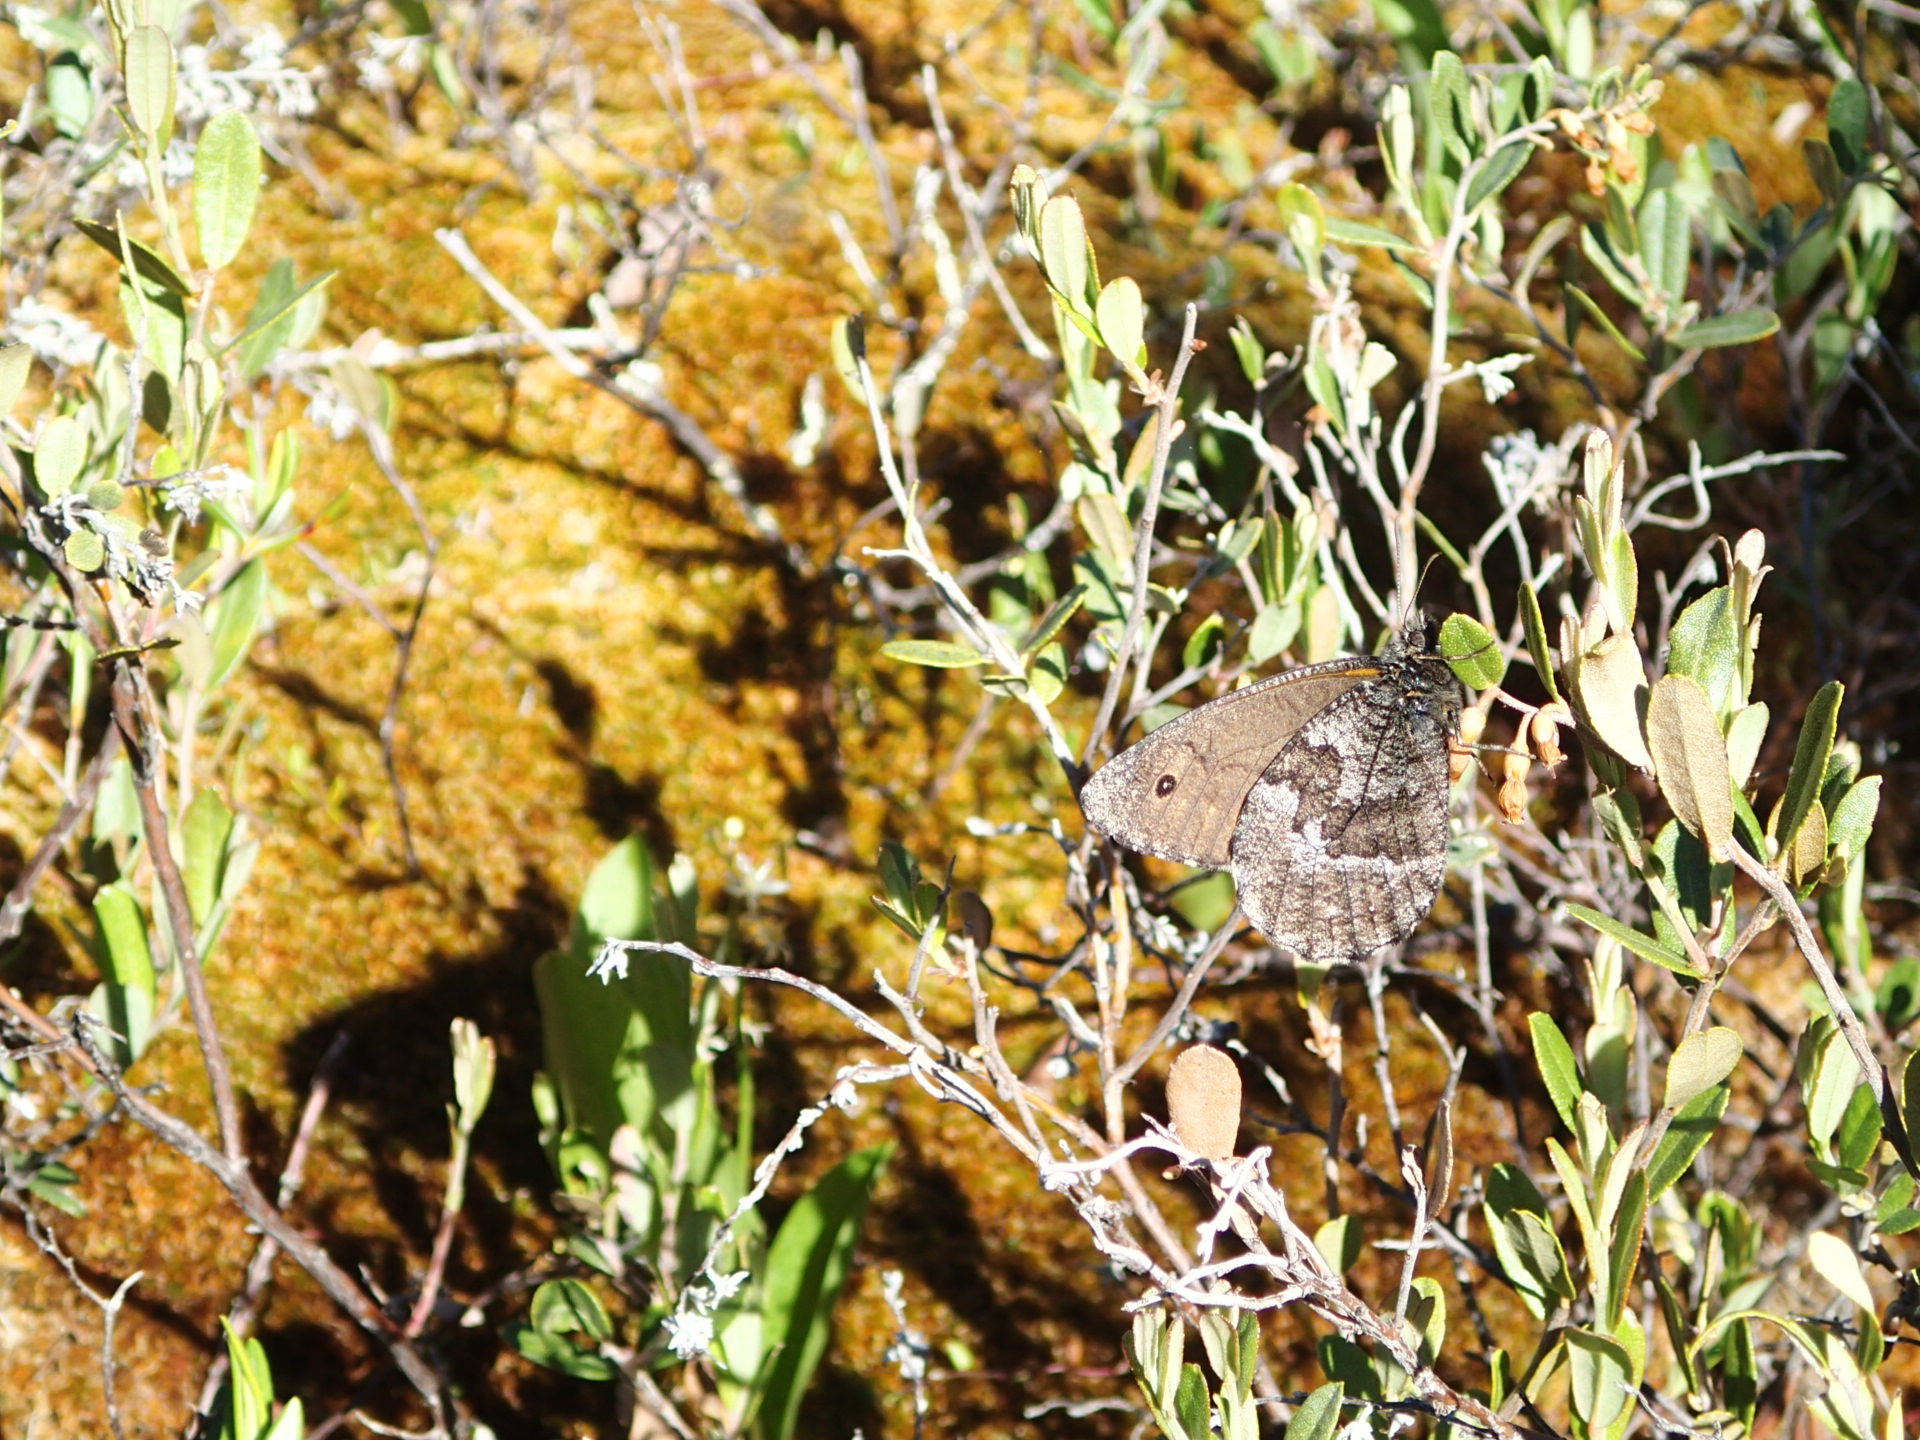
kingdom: Animalia
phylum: Arthropoda
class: Insecta
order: Lepidoptera
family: Nymphalidae
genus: Oeneis
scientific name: Oeneis jutta
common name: Baltic grayling
